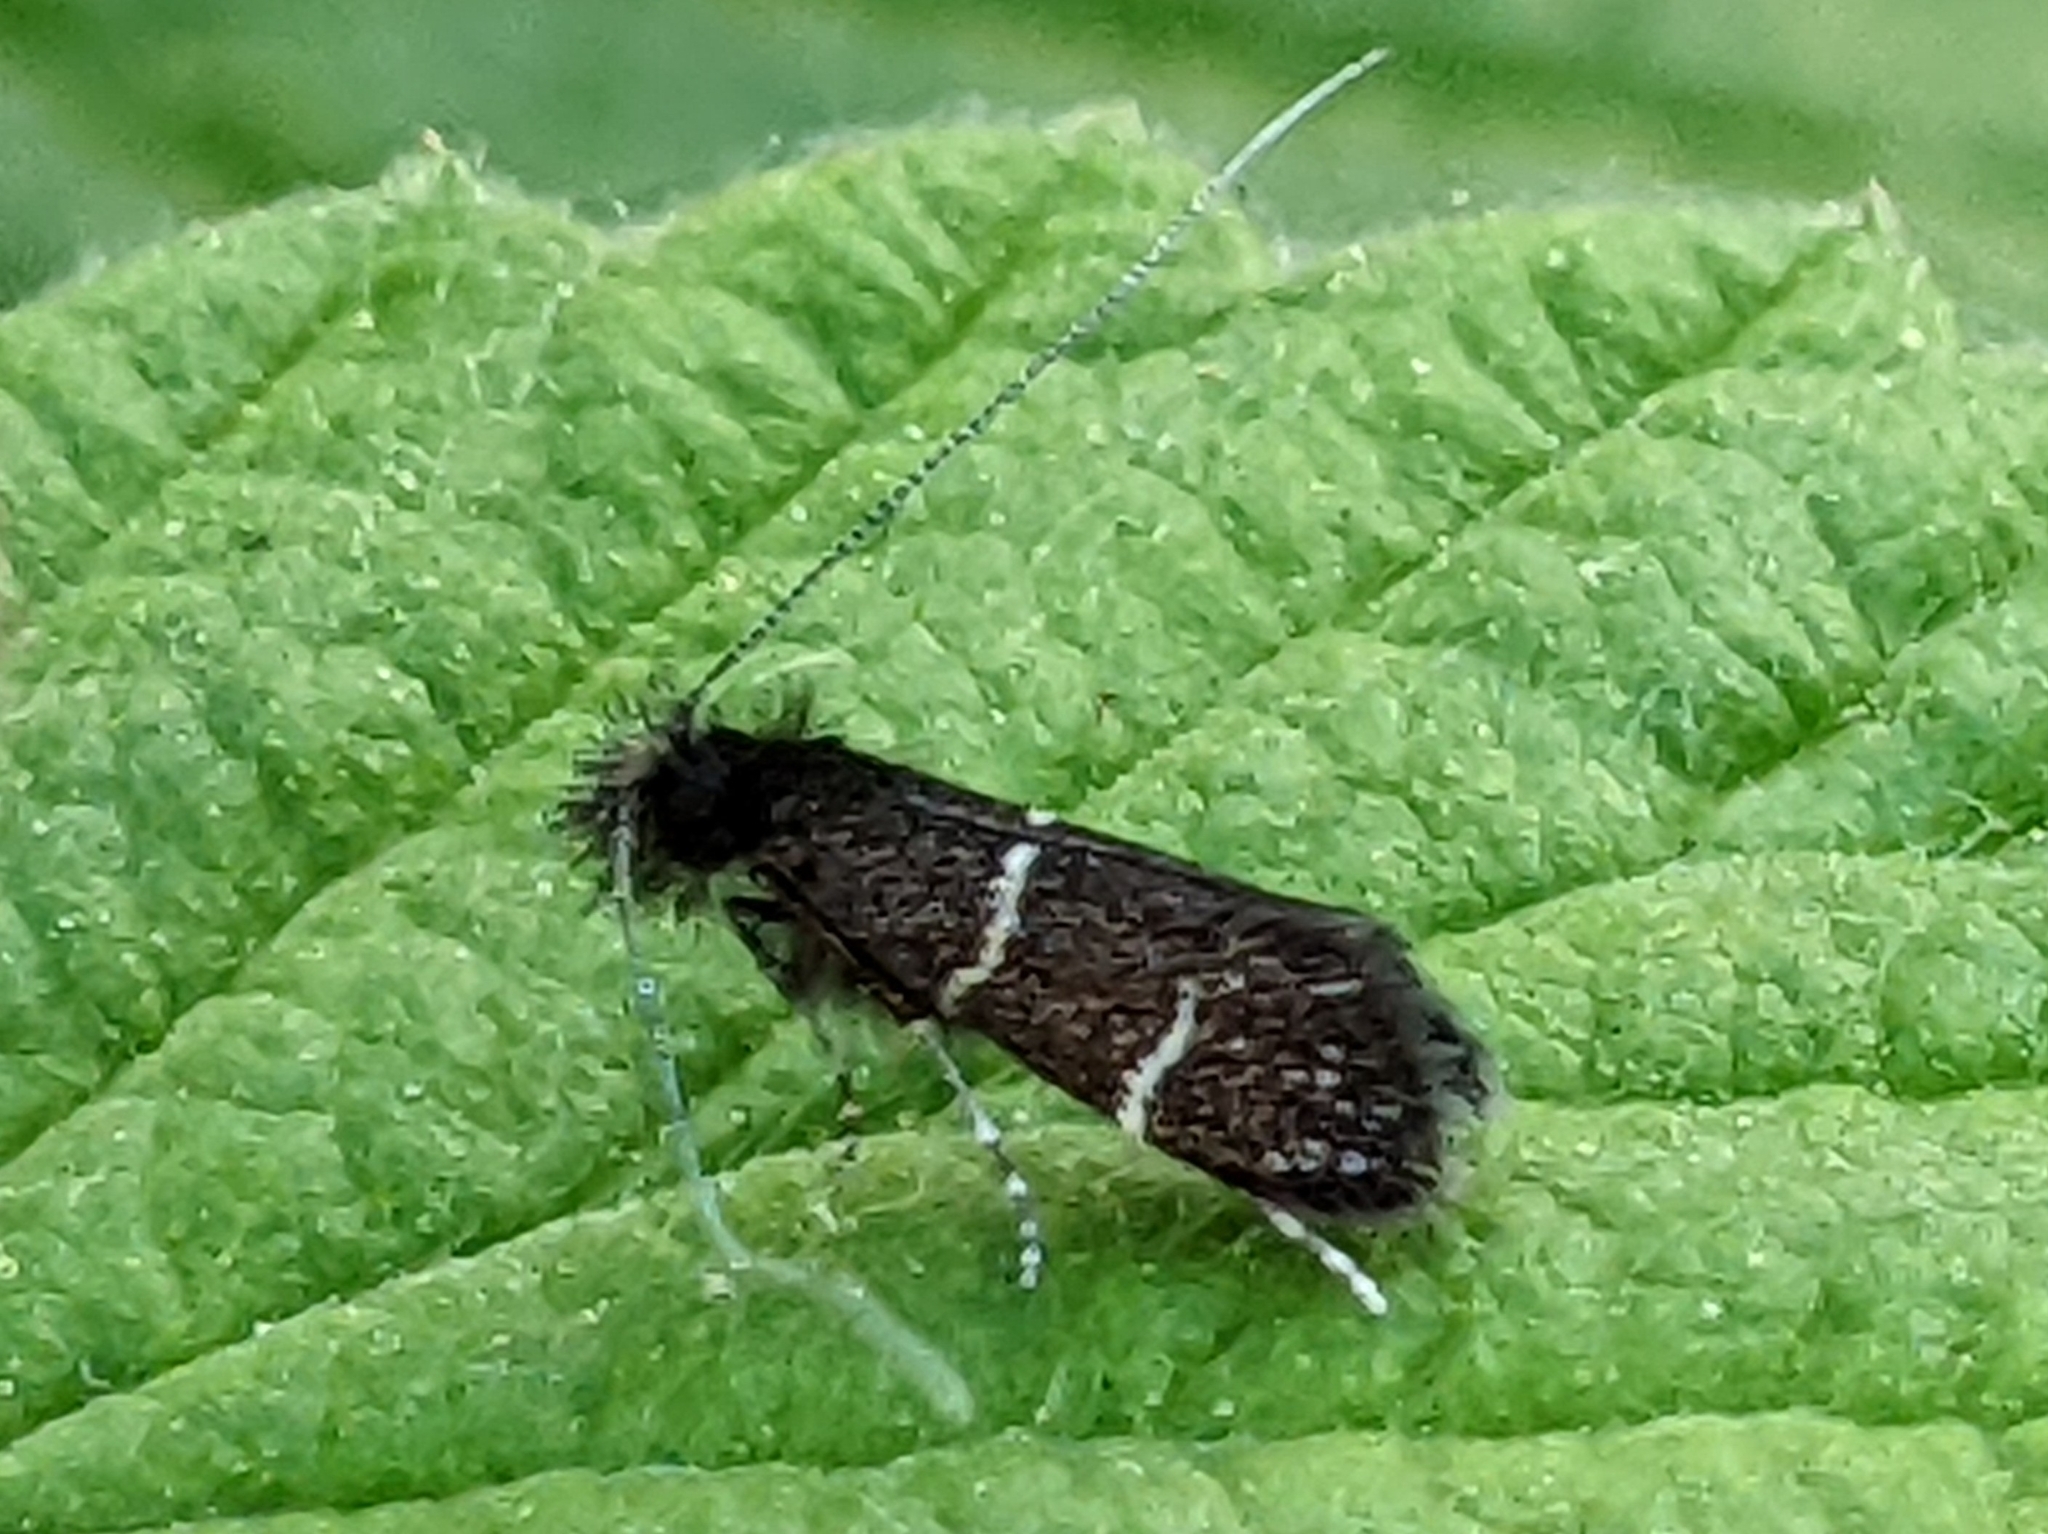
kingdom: Animalia
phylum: Arthropoda
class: Insecta
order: Lepidoptera
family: Adelidae
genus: Adela
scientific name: Adela septentrionella
